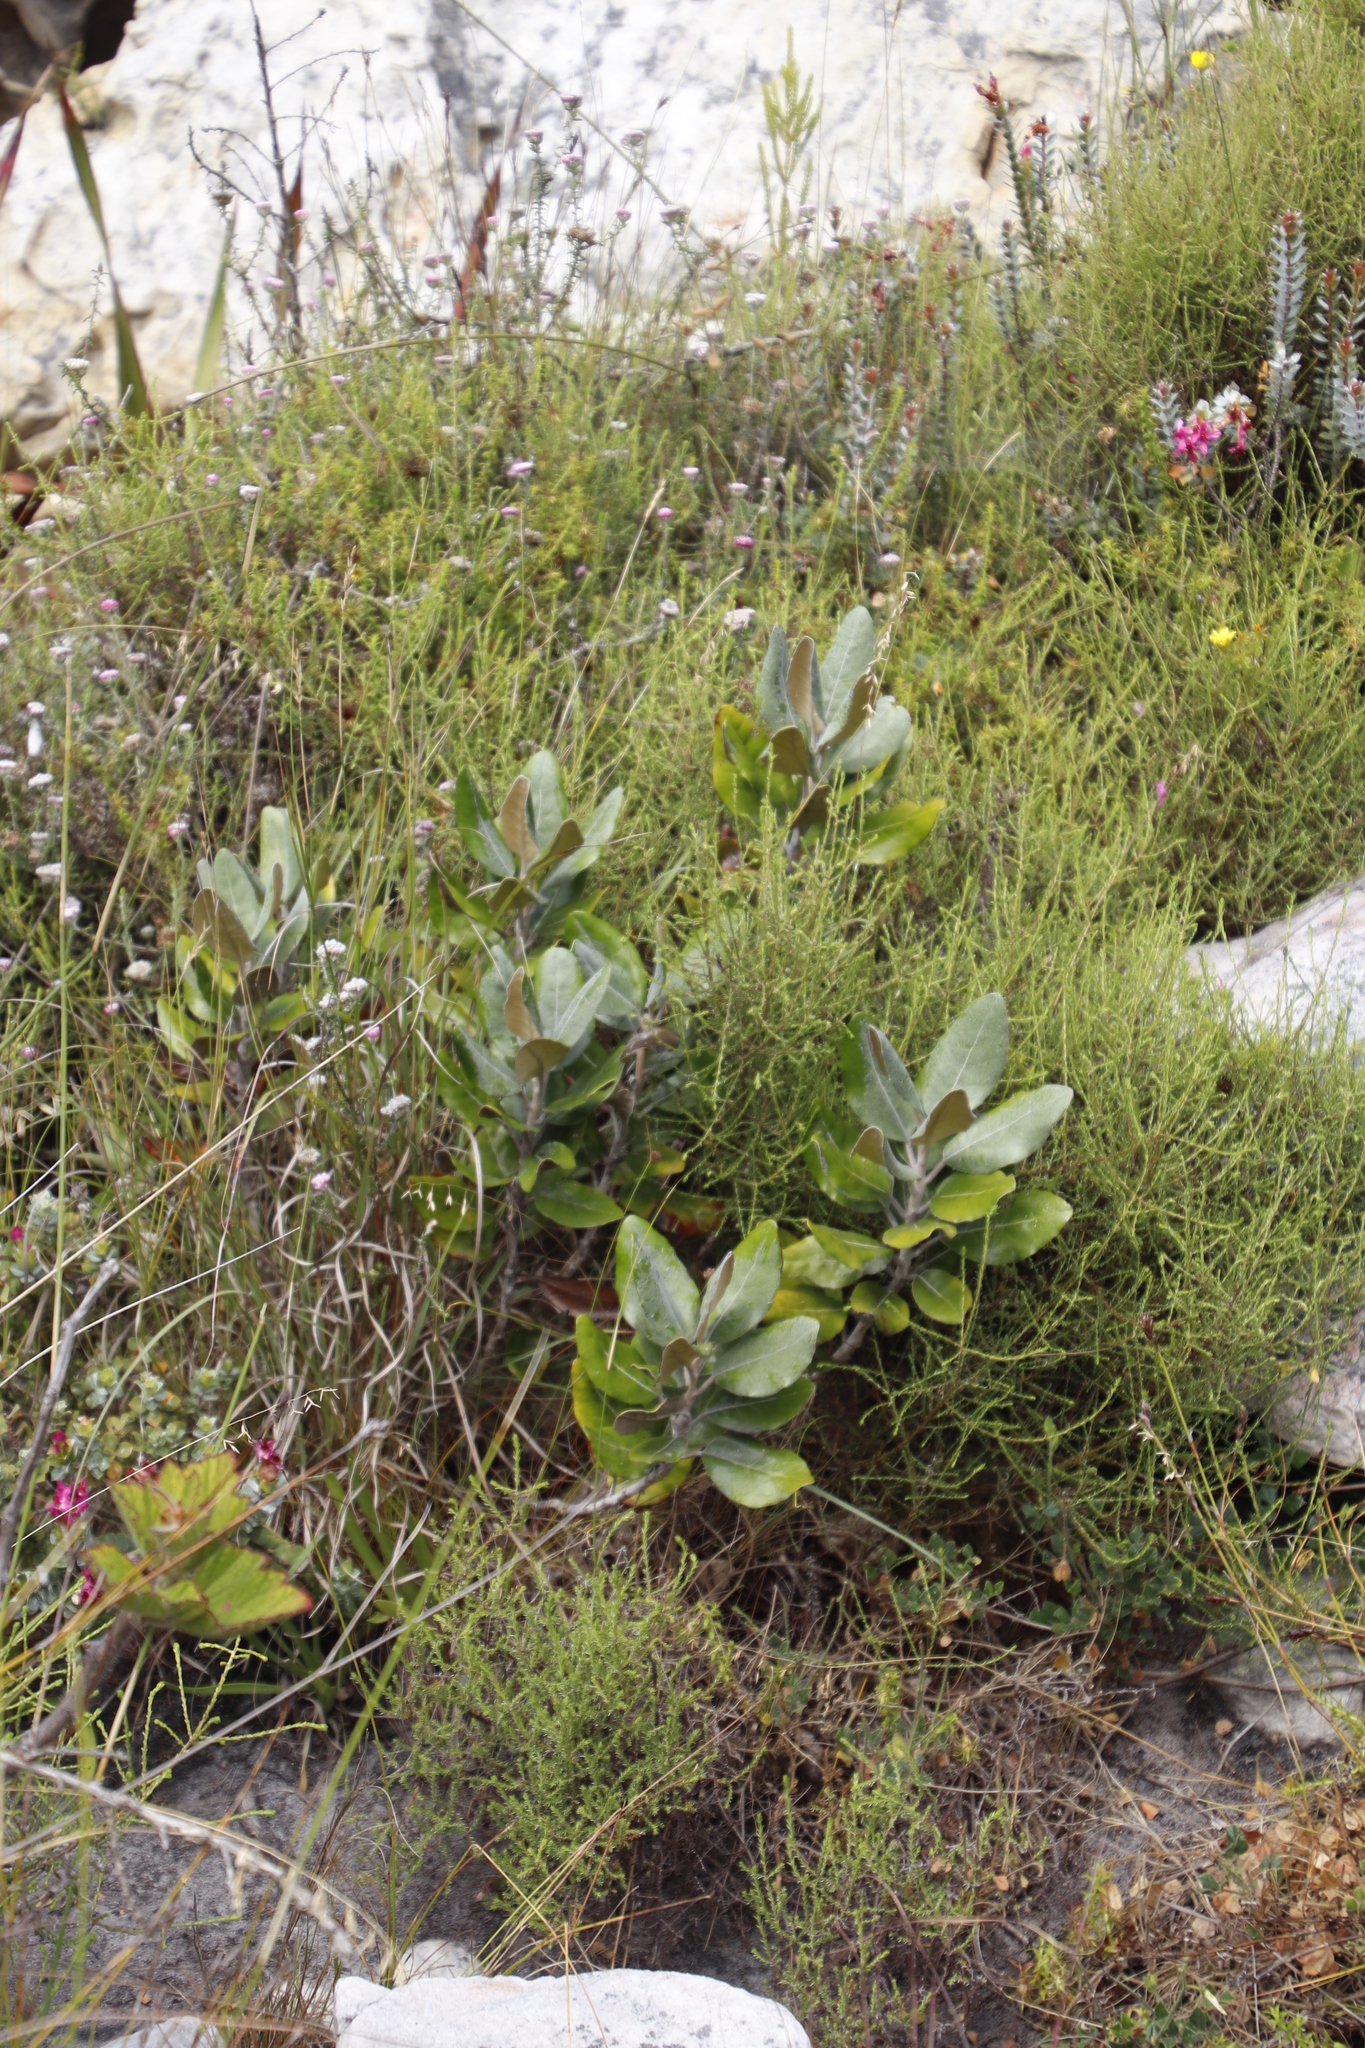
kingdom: Plantae
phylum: Tracheophyta
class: Magnoliopsida
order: Asterales
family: Asteraceae
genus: Capelio
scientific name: Capelio tabularis
